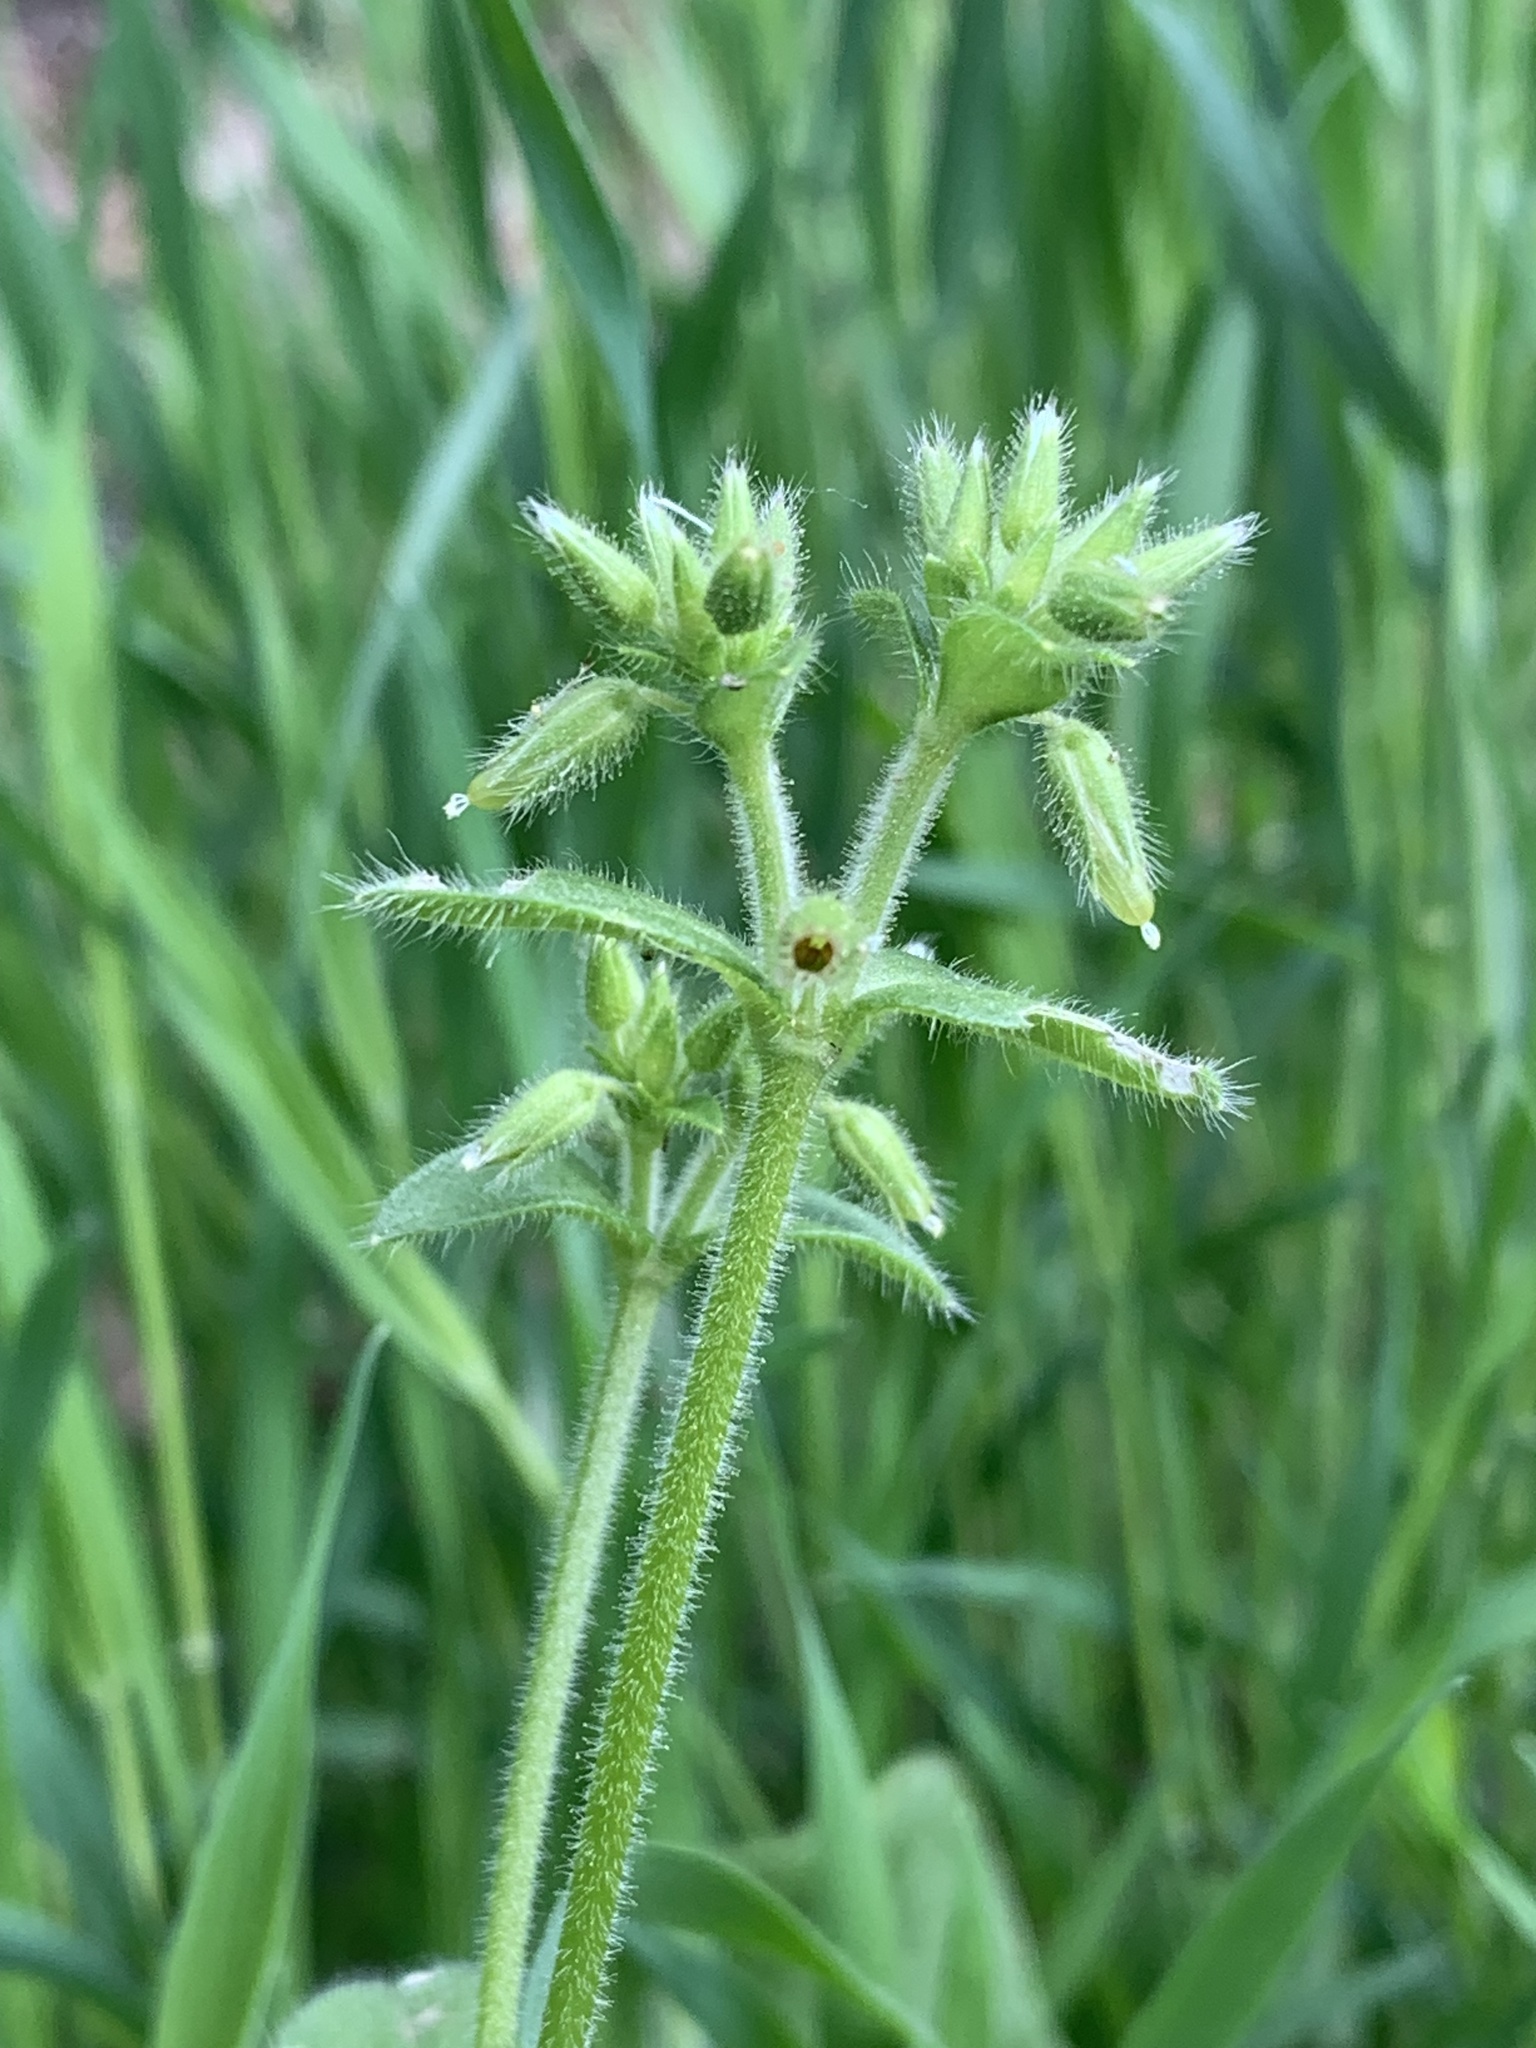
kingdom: Plantae
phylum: Tracheophyta
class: Magnoliopsida
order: Caryophyllales
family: Caryophyllaceae
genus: Cerastium
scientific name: Cerastium glomeratum
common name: Sticky chickweed
